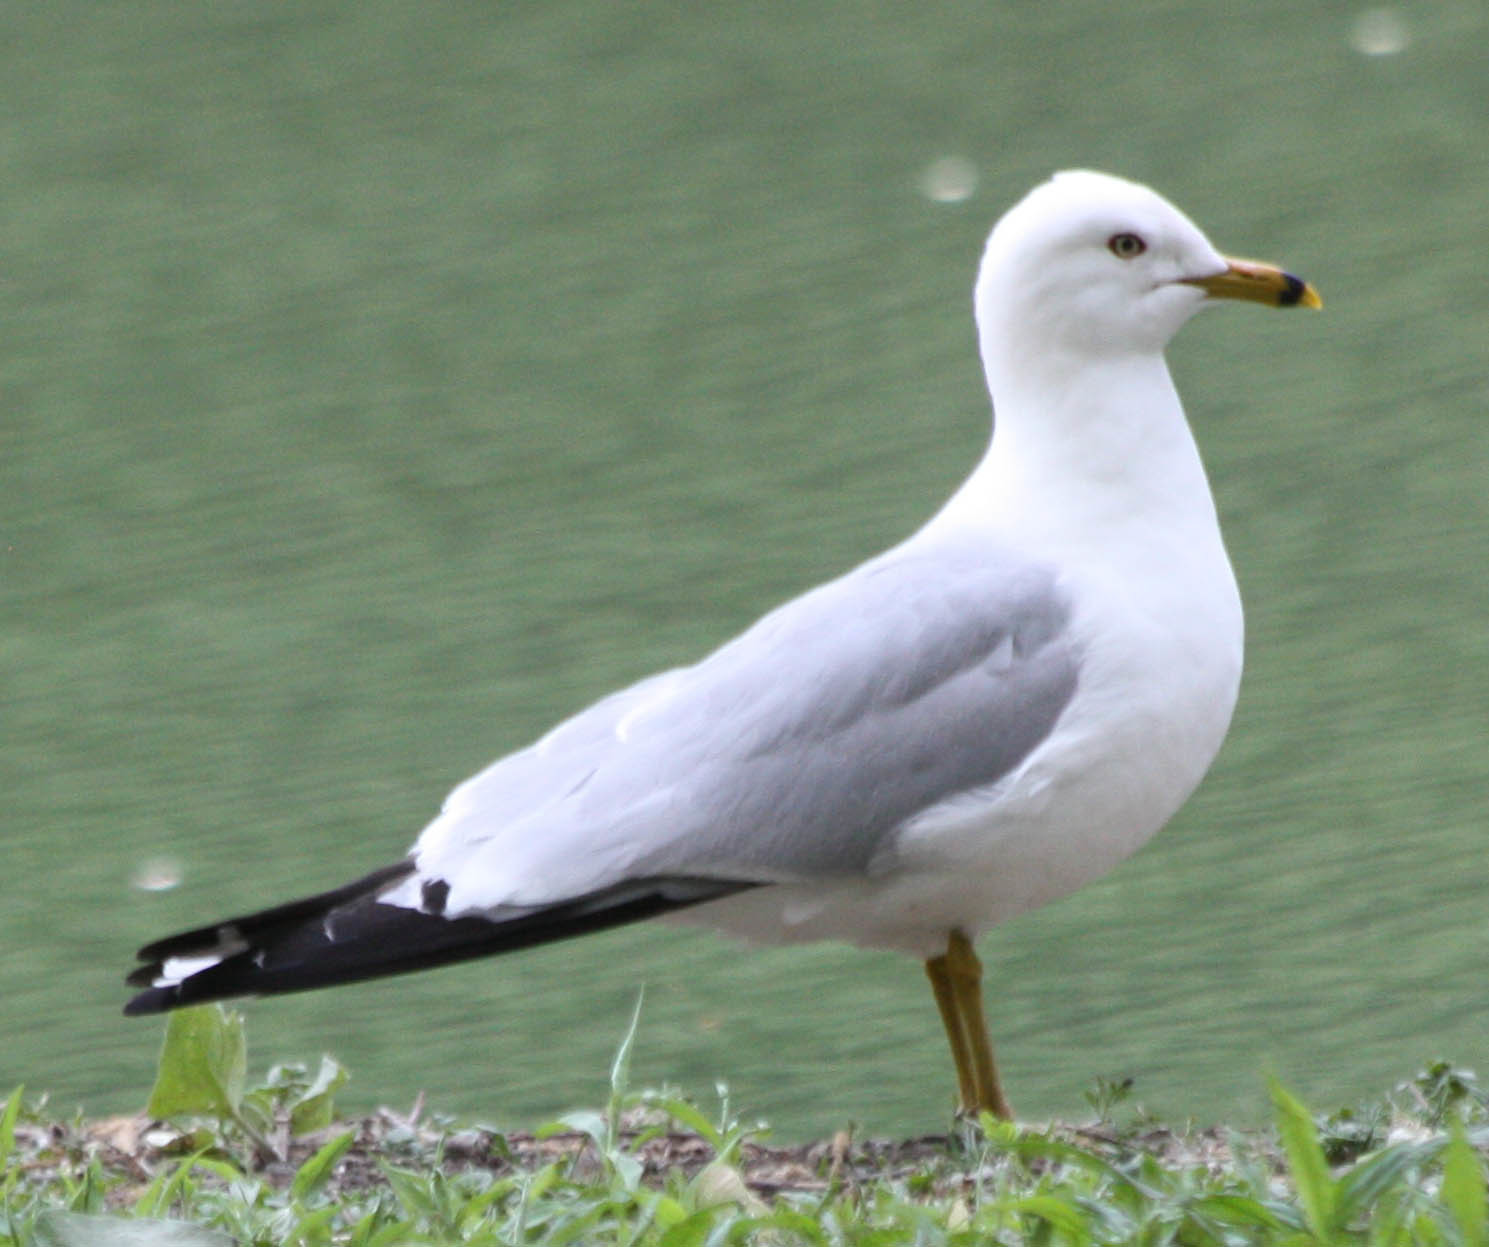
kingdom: Animalia
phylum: Chordata
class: Aves
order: Charadriiformes
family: Laridae
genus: Larus
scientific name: Larus delawarensis
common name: Ring-billed gull
